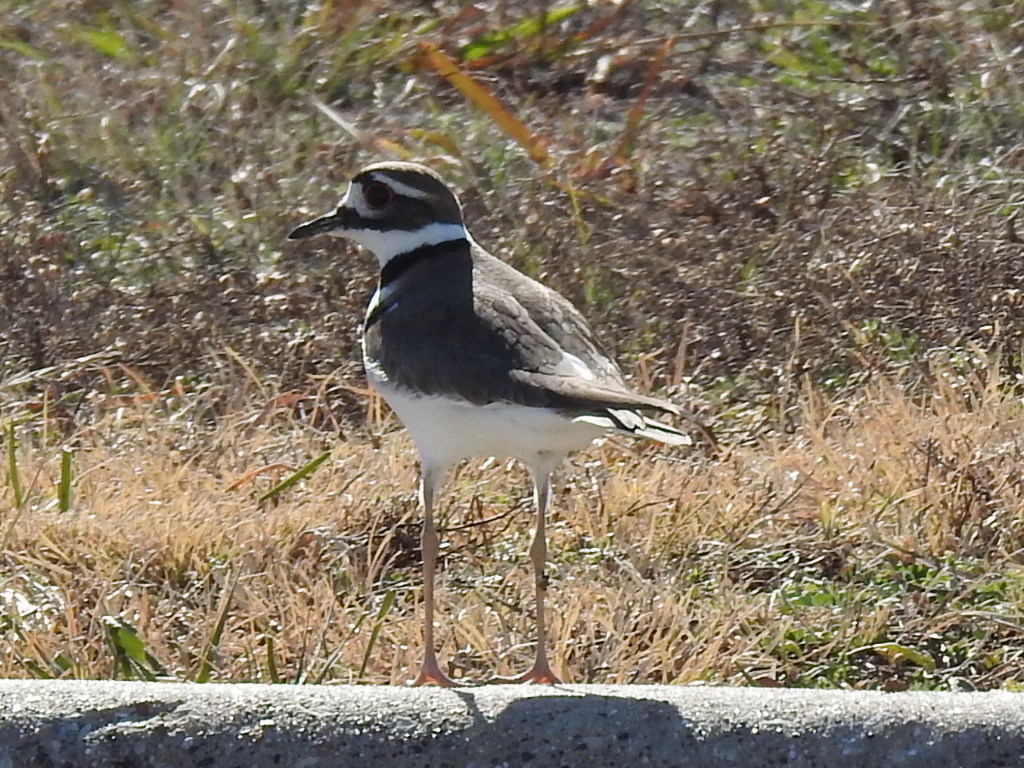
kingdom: Animalia
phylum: Chordata
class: Aves
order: Charadriiformes
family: Charadriidae
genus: Charadrius
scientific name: Charadrius vociferus
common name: Killdeer
